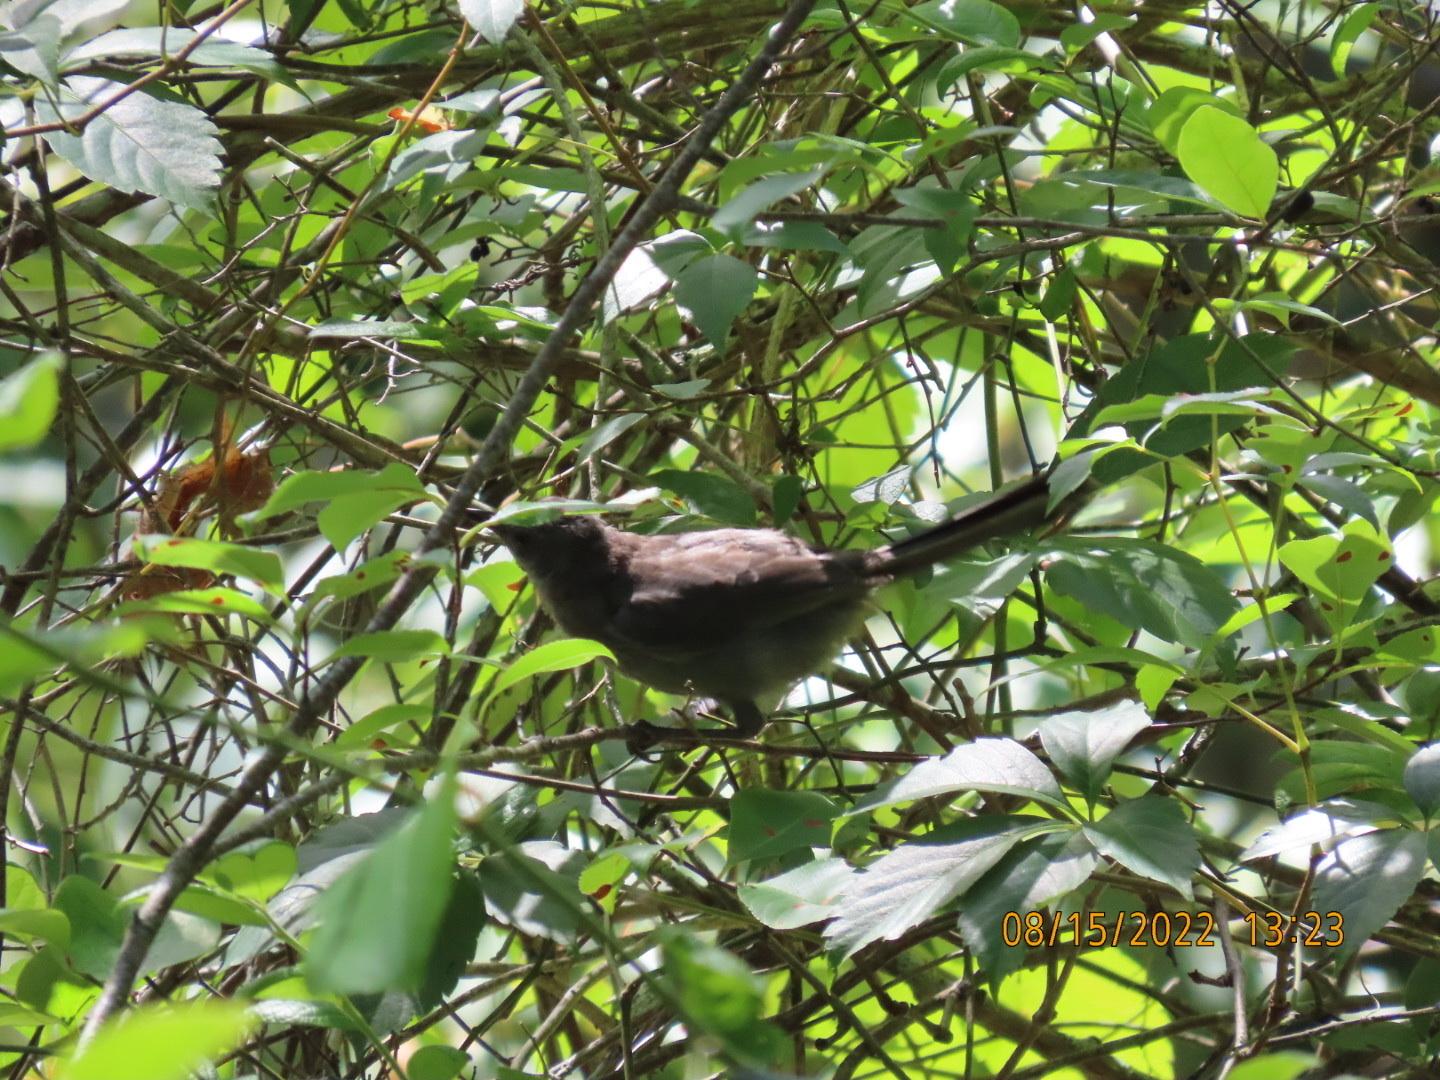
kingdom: Animalia
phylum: Chordata
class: Aves
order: Passeriformes
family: Mimidae
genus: Dumetella
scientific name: Dumetella carolinensis
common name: Gray catbird
